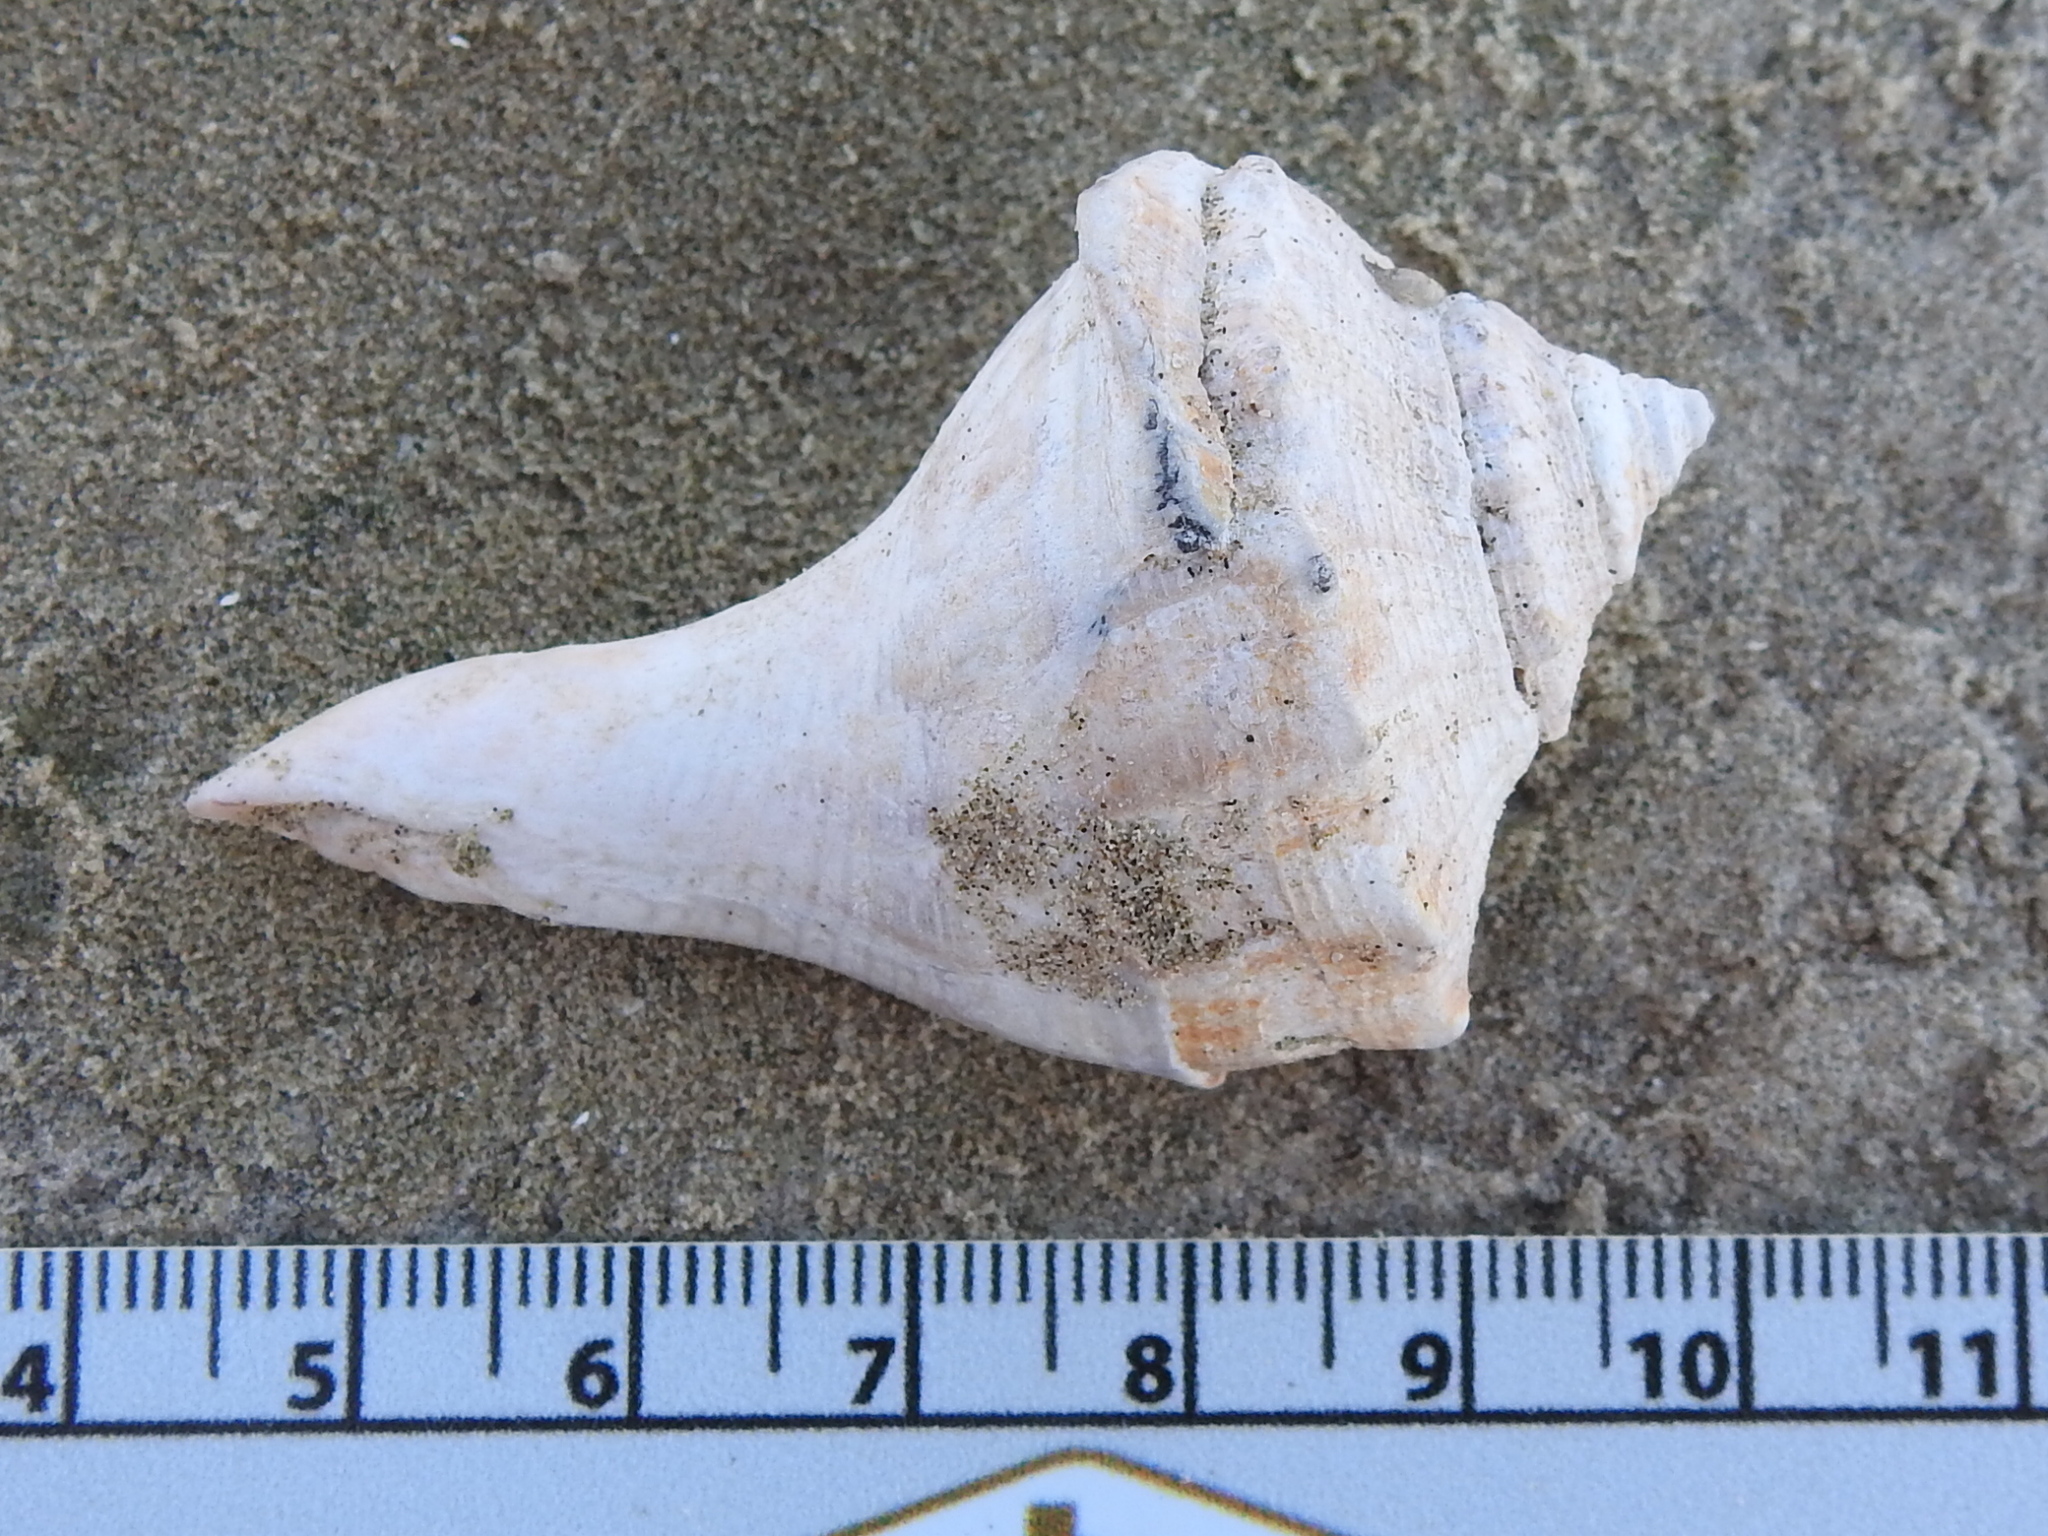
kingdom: Animalia
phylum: Mollusca
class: Gastropoda
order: Neogastropoda
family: Busyconidae
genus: Sinistrofulgur
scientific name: Sinistrofulgur pulleyi
